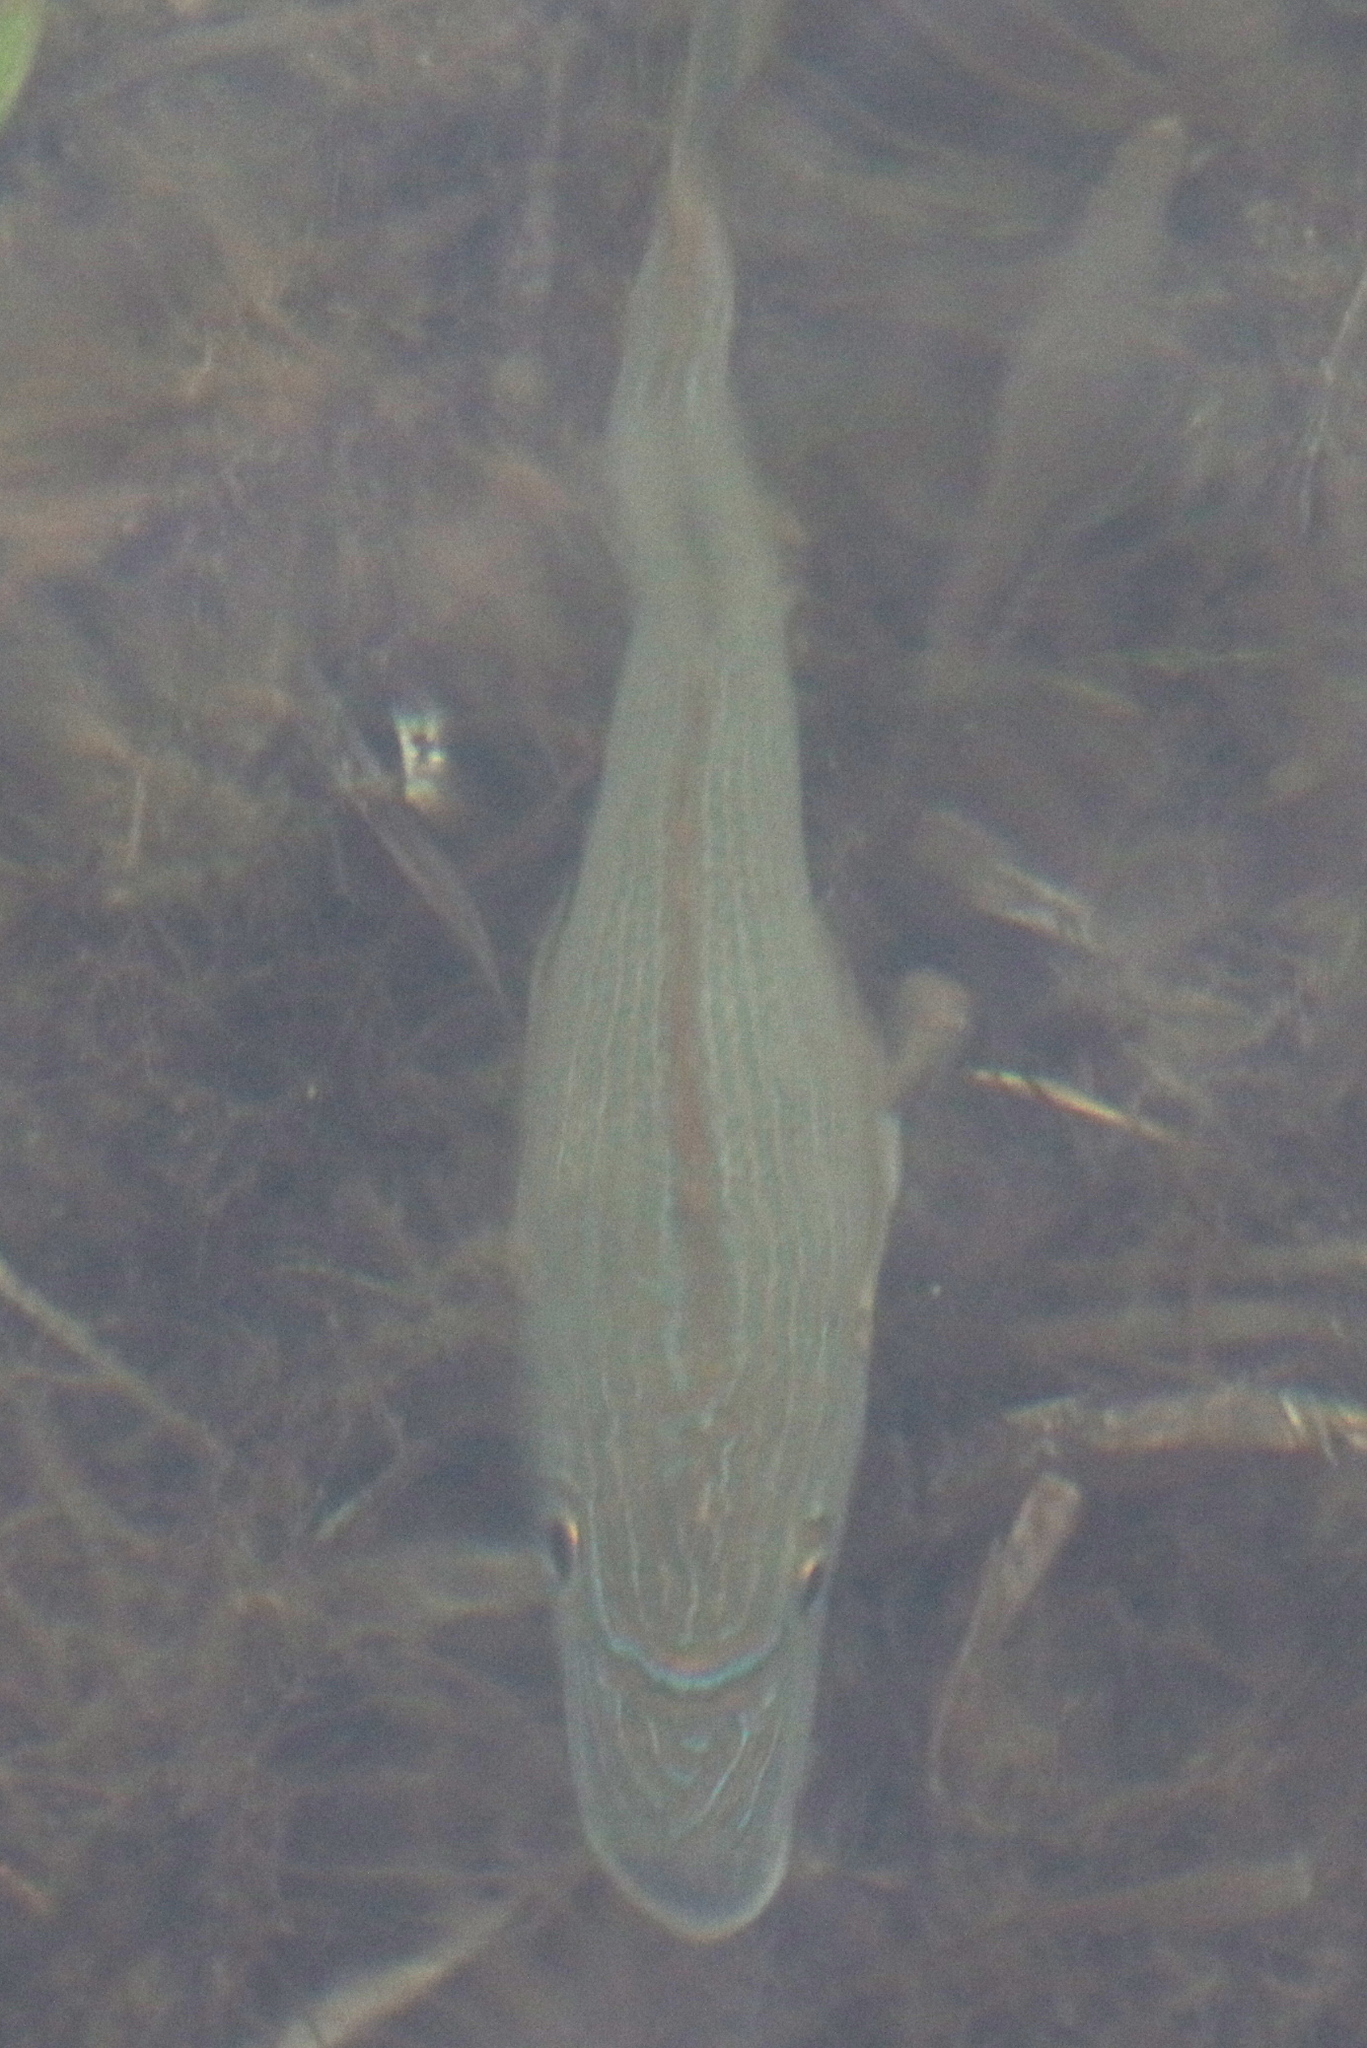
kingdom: Animalia
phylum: Chordata
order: Perciformes
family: Haemulidae
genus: Haemulon
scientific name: Haemulon sciurus
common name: Bluestriped grunt
